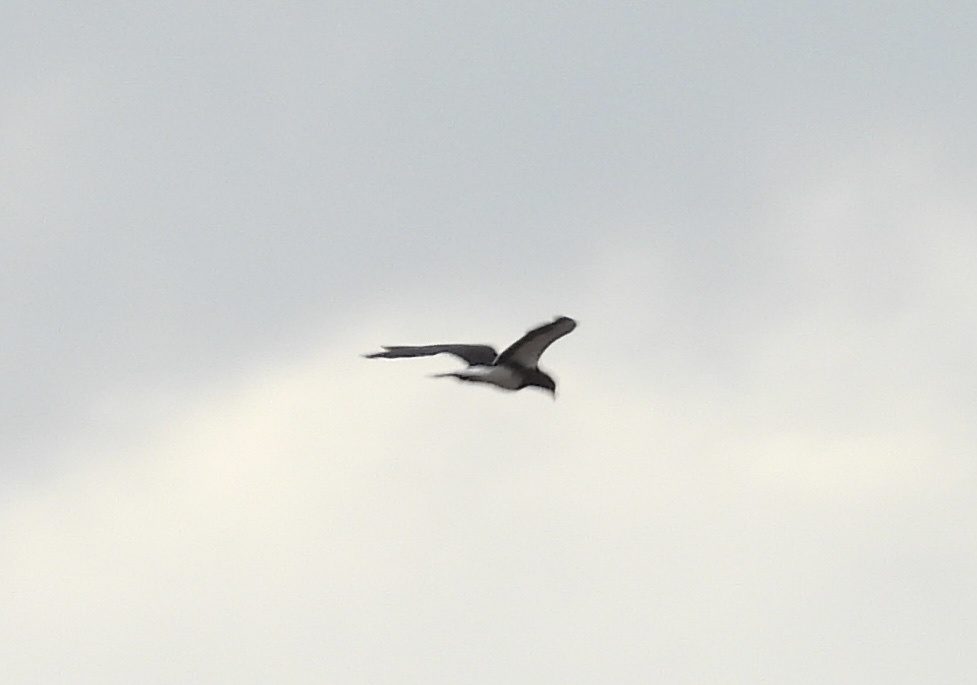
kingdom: Animalia
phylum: Chordata
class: Aves
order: Falconiformes
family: Falconidae
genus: Daptrius
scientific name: Daptrius
